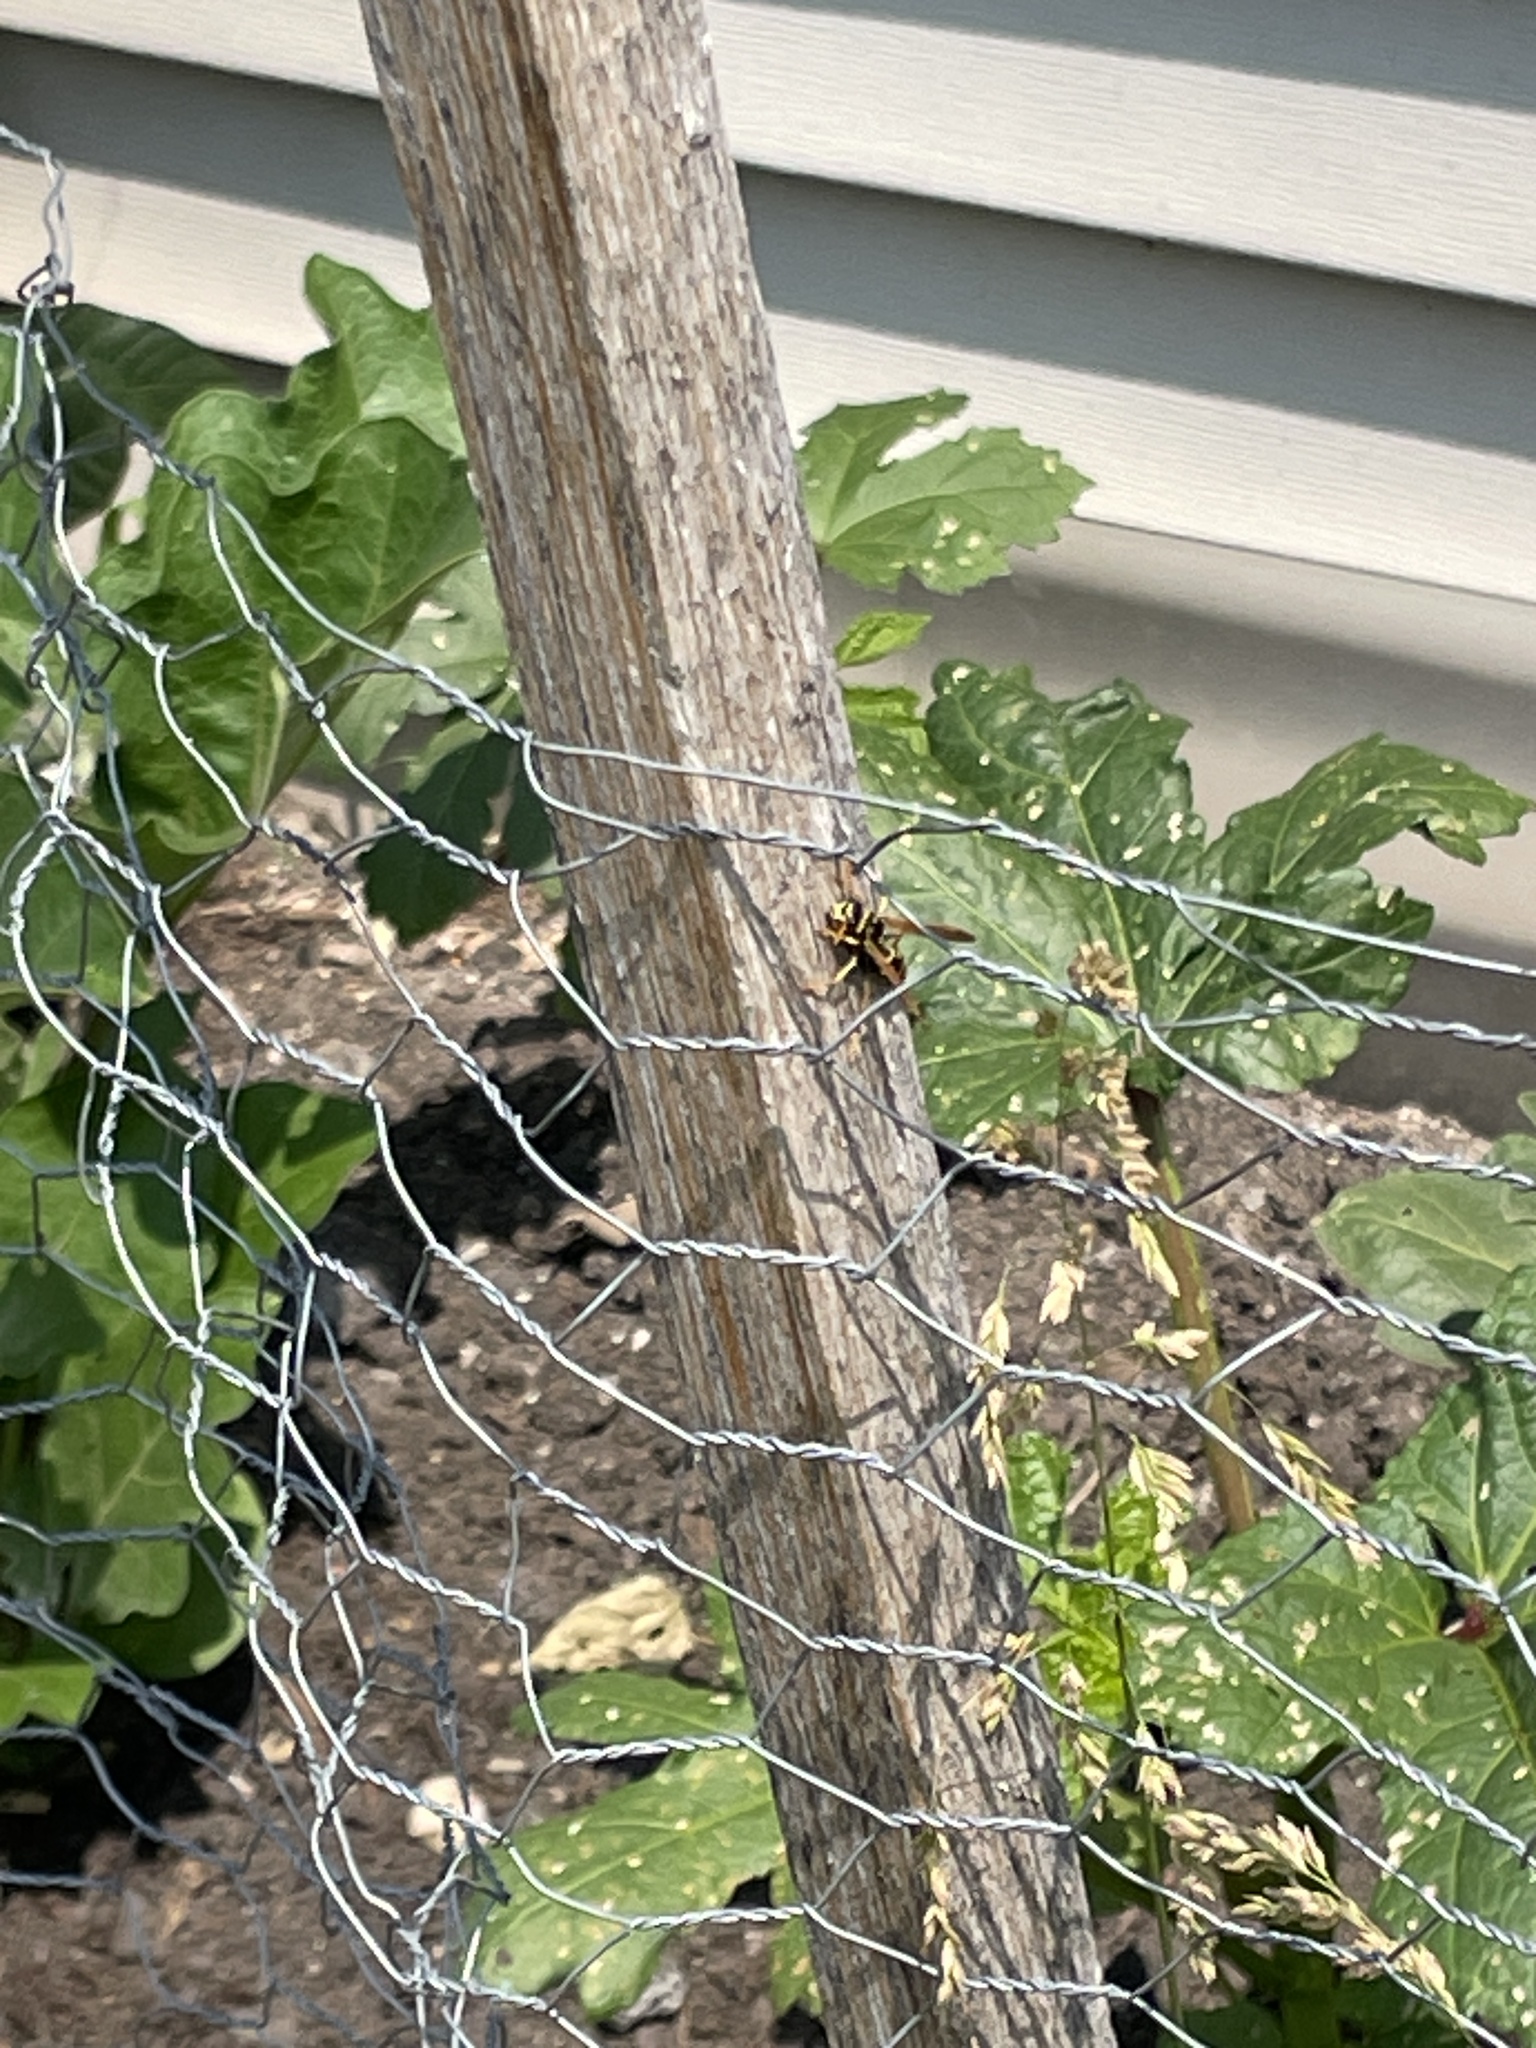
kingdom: Animalia
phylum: Arthropoda
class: Insecta
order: Hymenoptera
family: Eumenidae
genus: Polistes
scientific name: Polistes dominula
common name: Paper wasp
